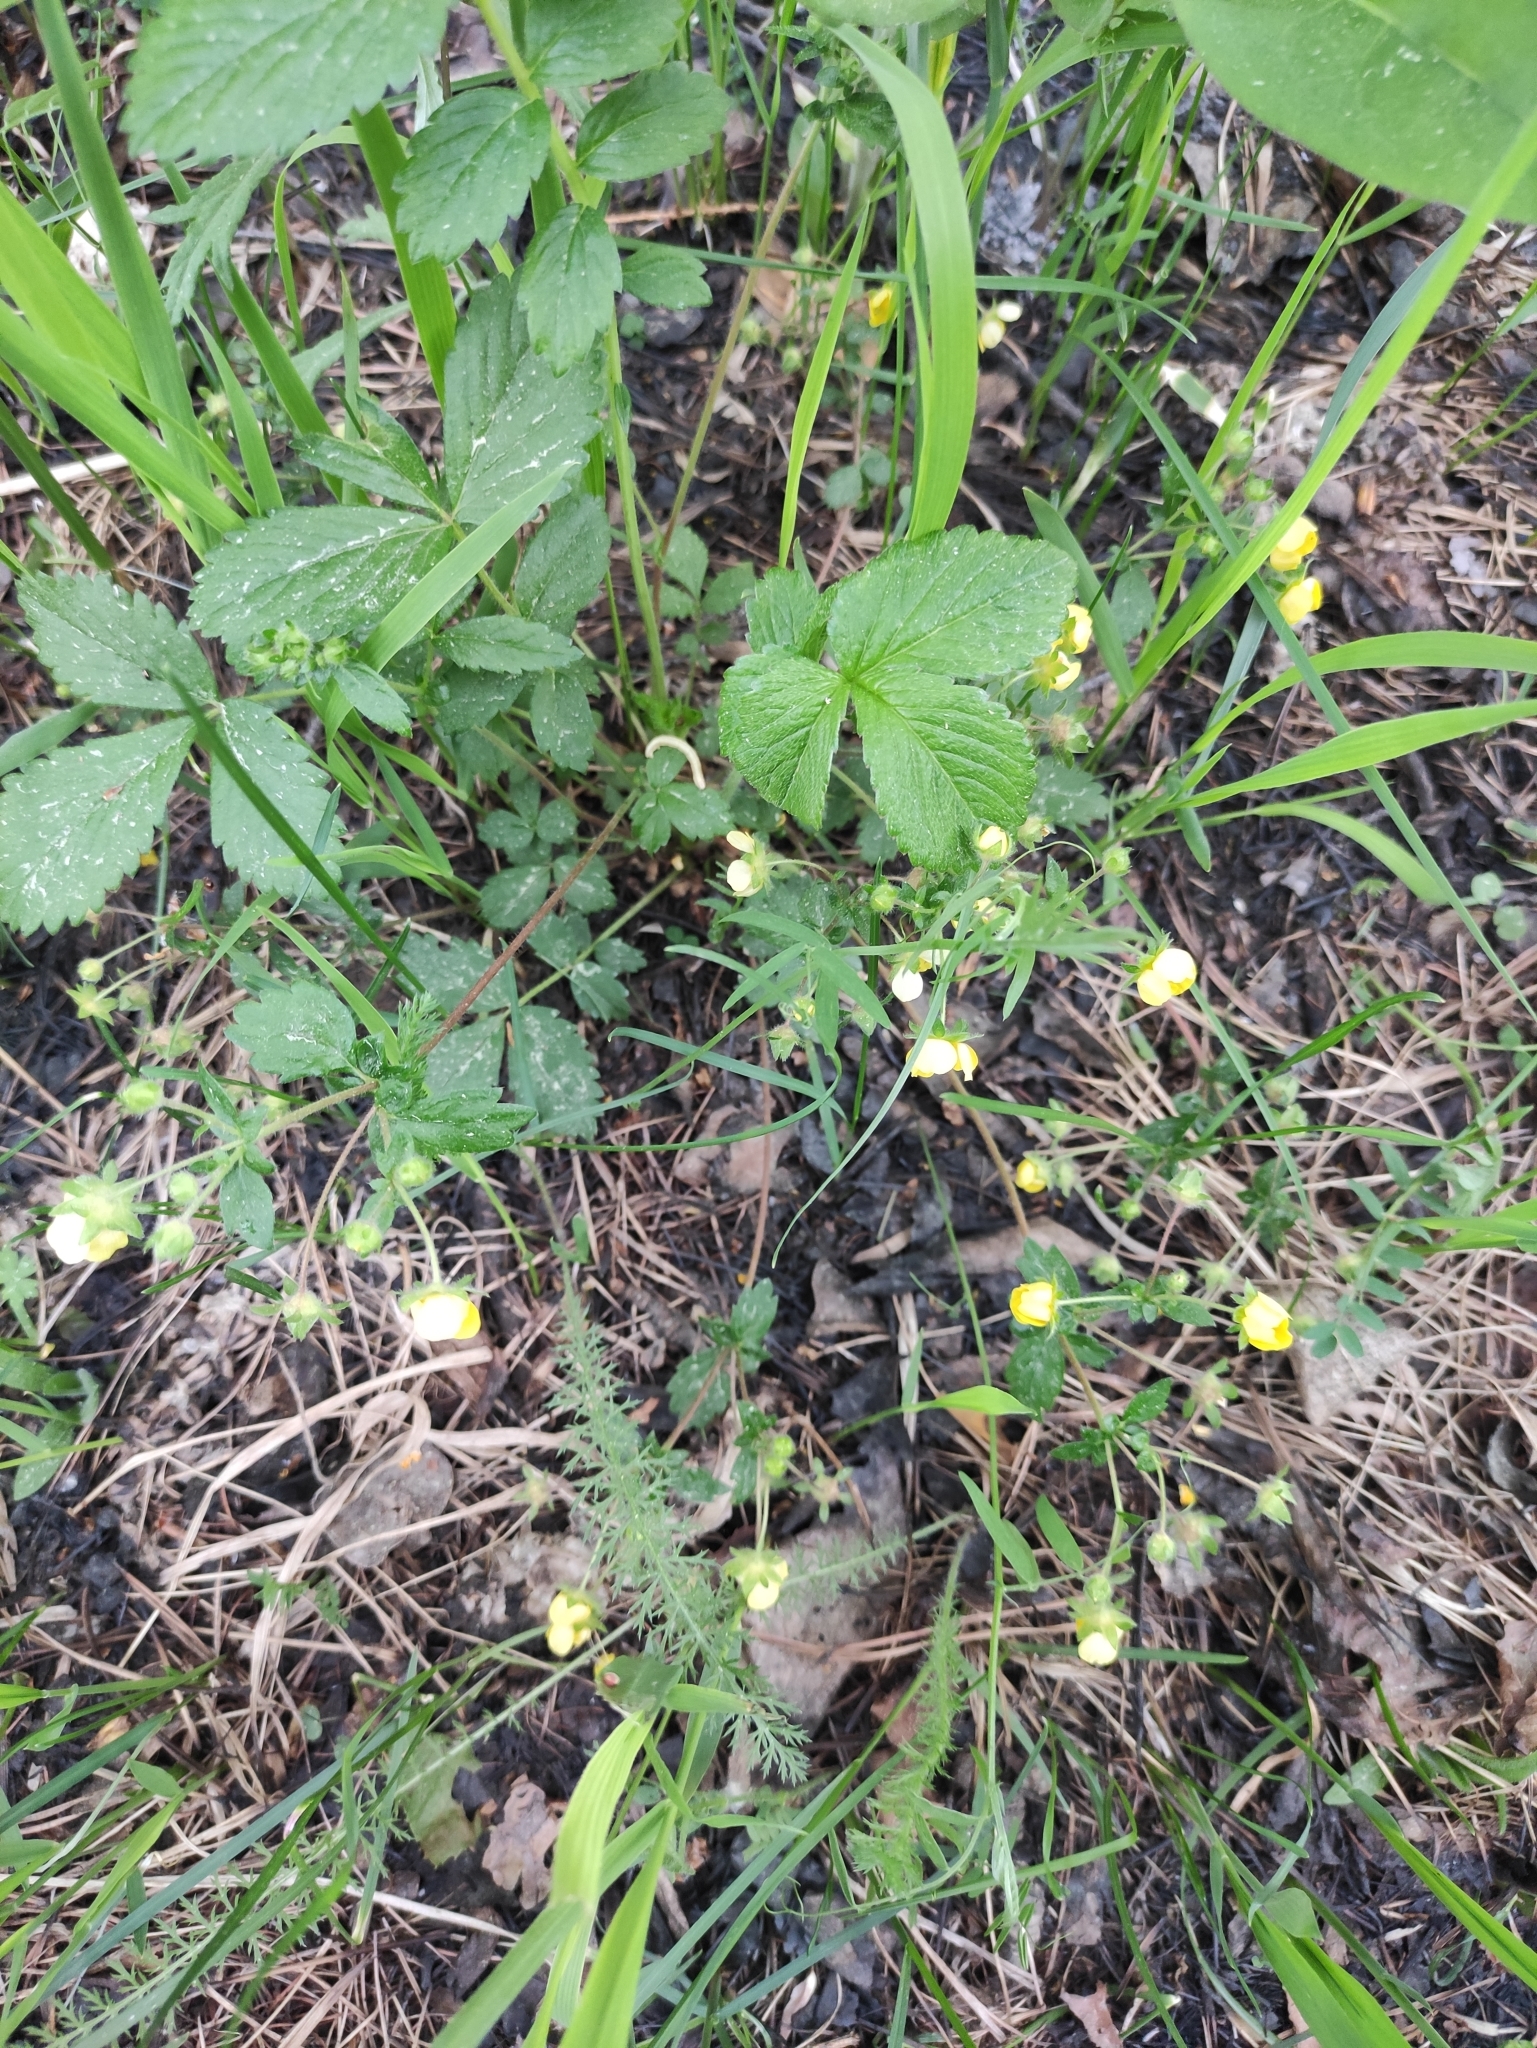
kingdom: Plantae
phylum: Tracheophyta
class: Magnoliopsida
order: Rosales
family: Rosaceae
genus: Potentilla
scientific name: Potentilla fragarioides
